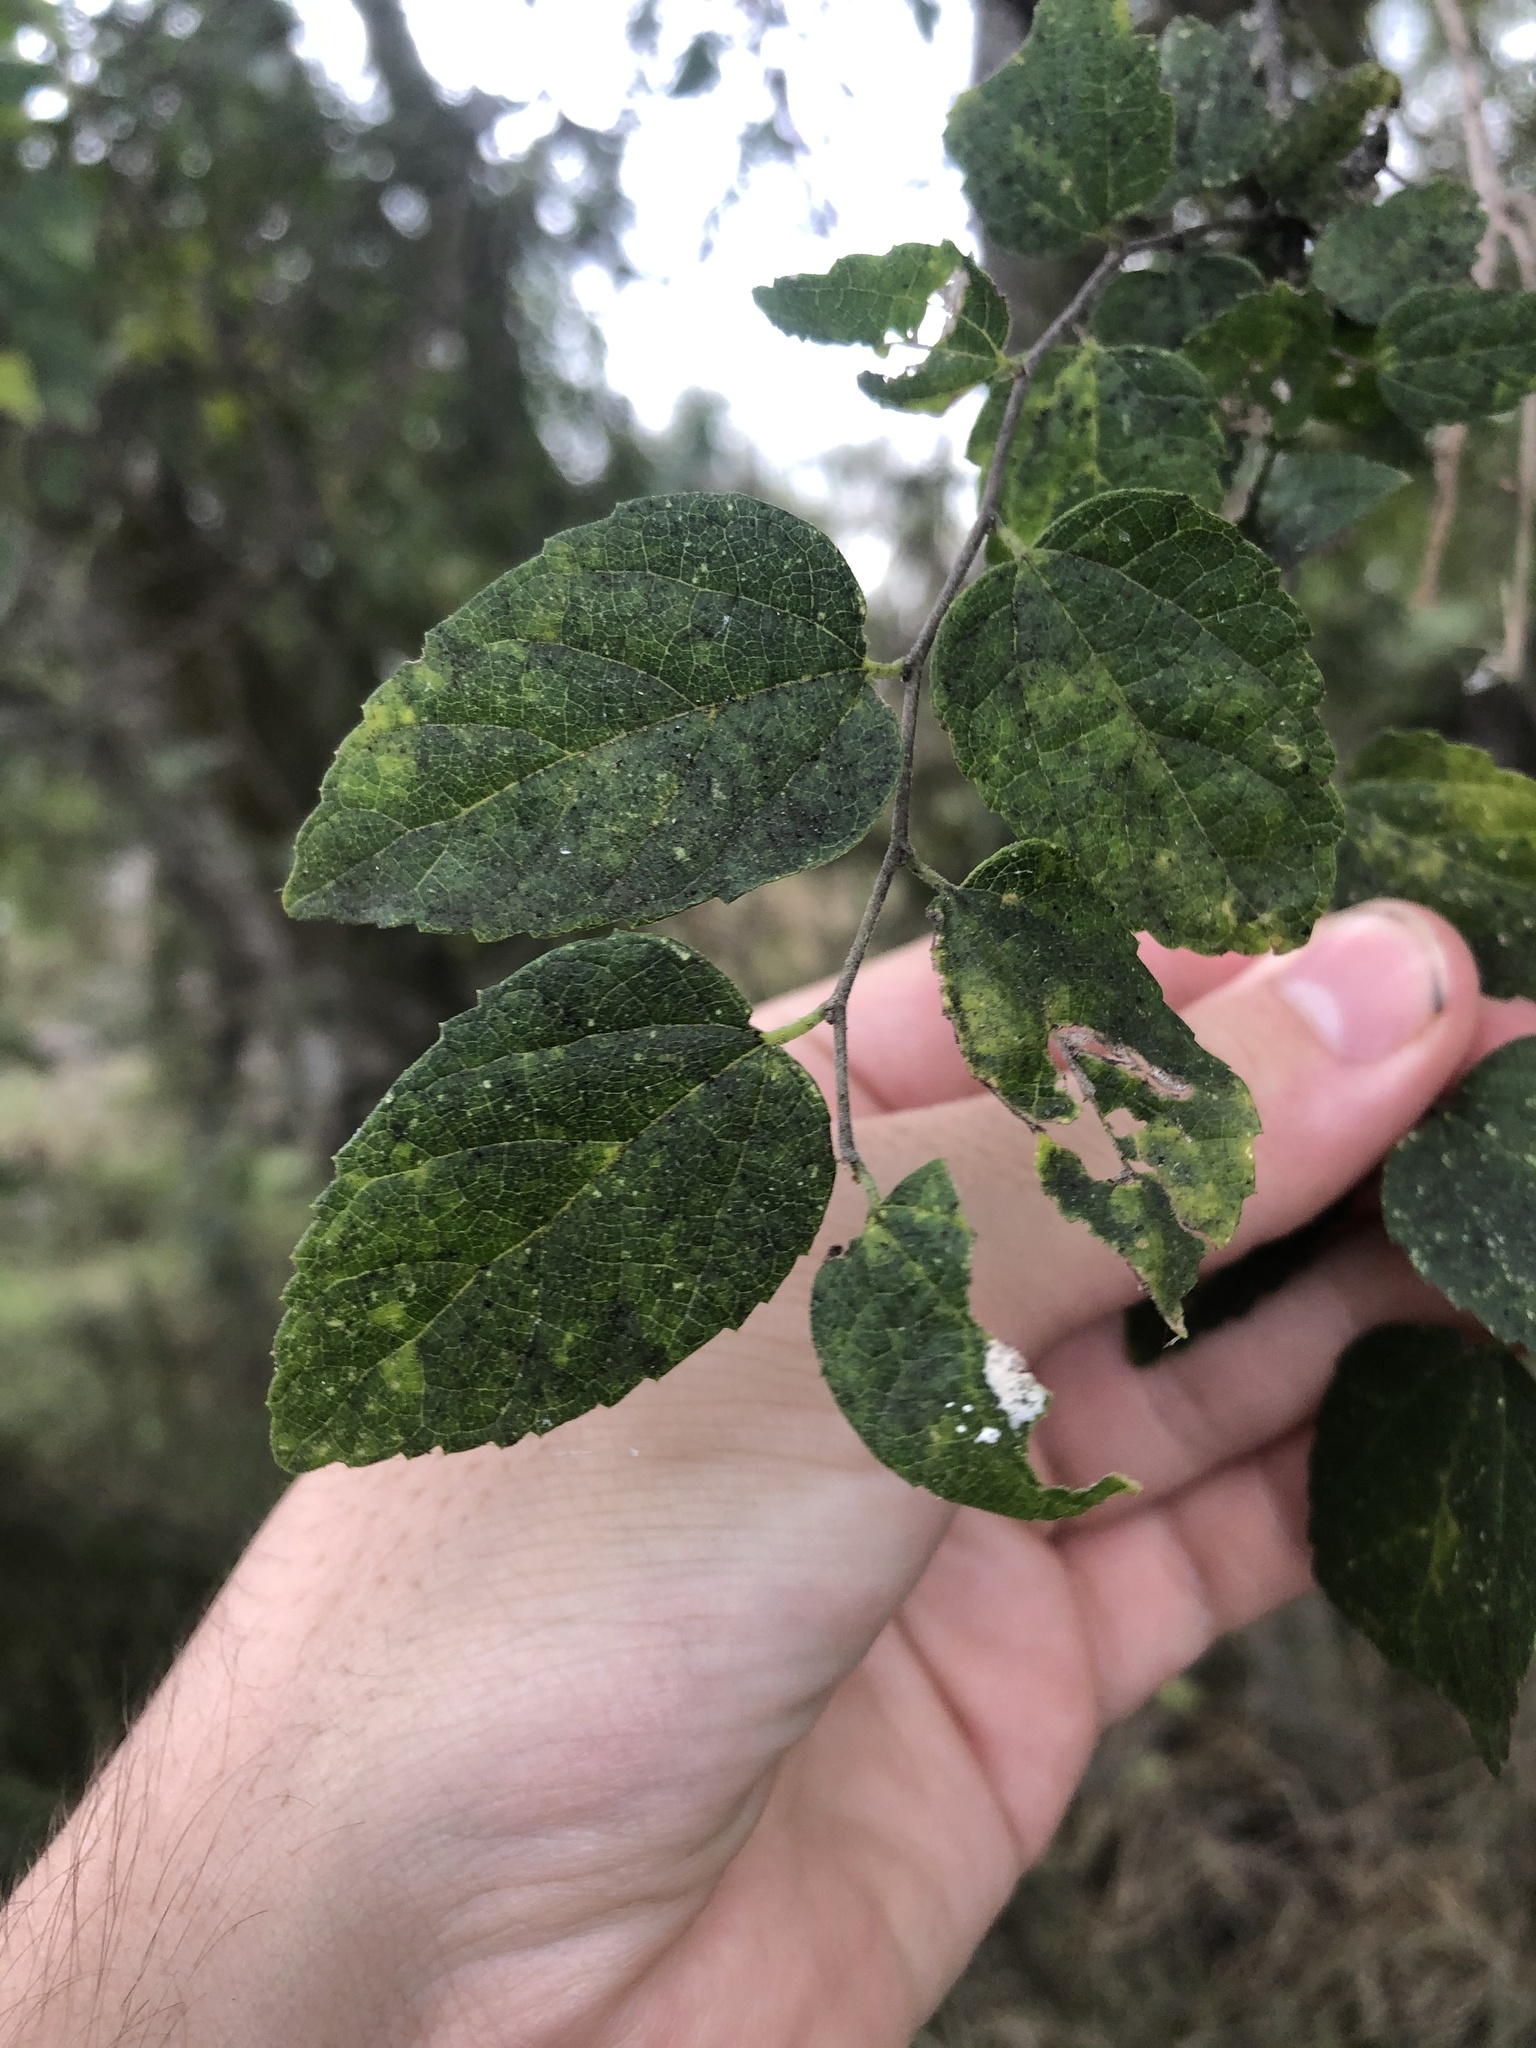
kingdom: Plantae
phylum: Tracheophyta
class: Magnoliopsida
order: Rosales
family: Cannabaceae
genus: Celtis
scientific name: Celtis laevigata
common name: Sugarberry
